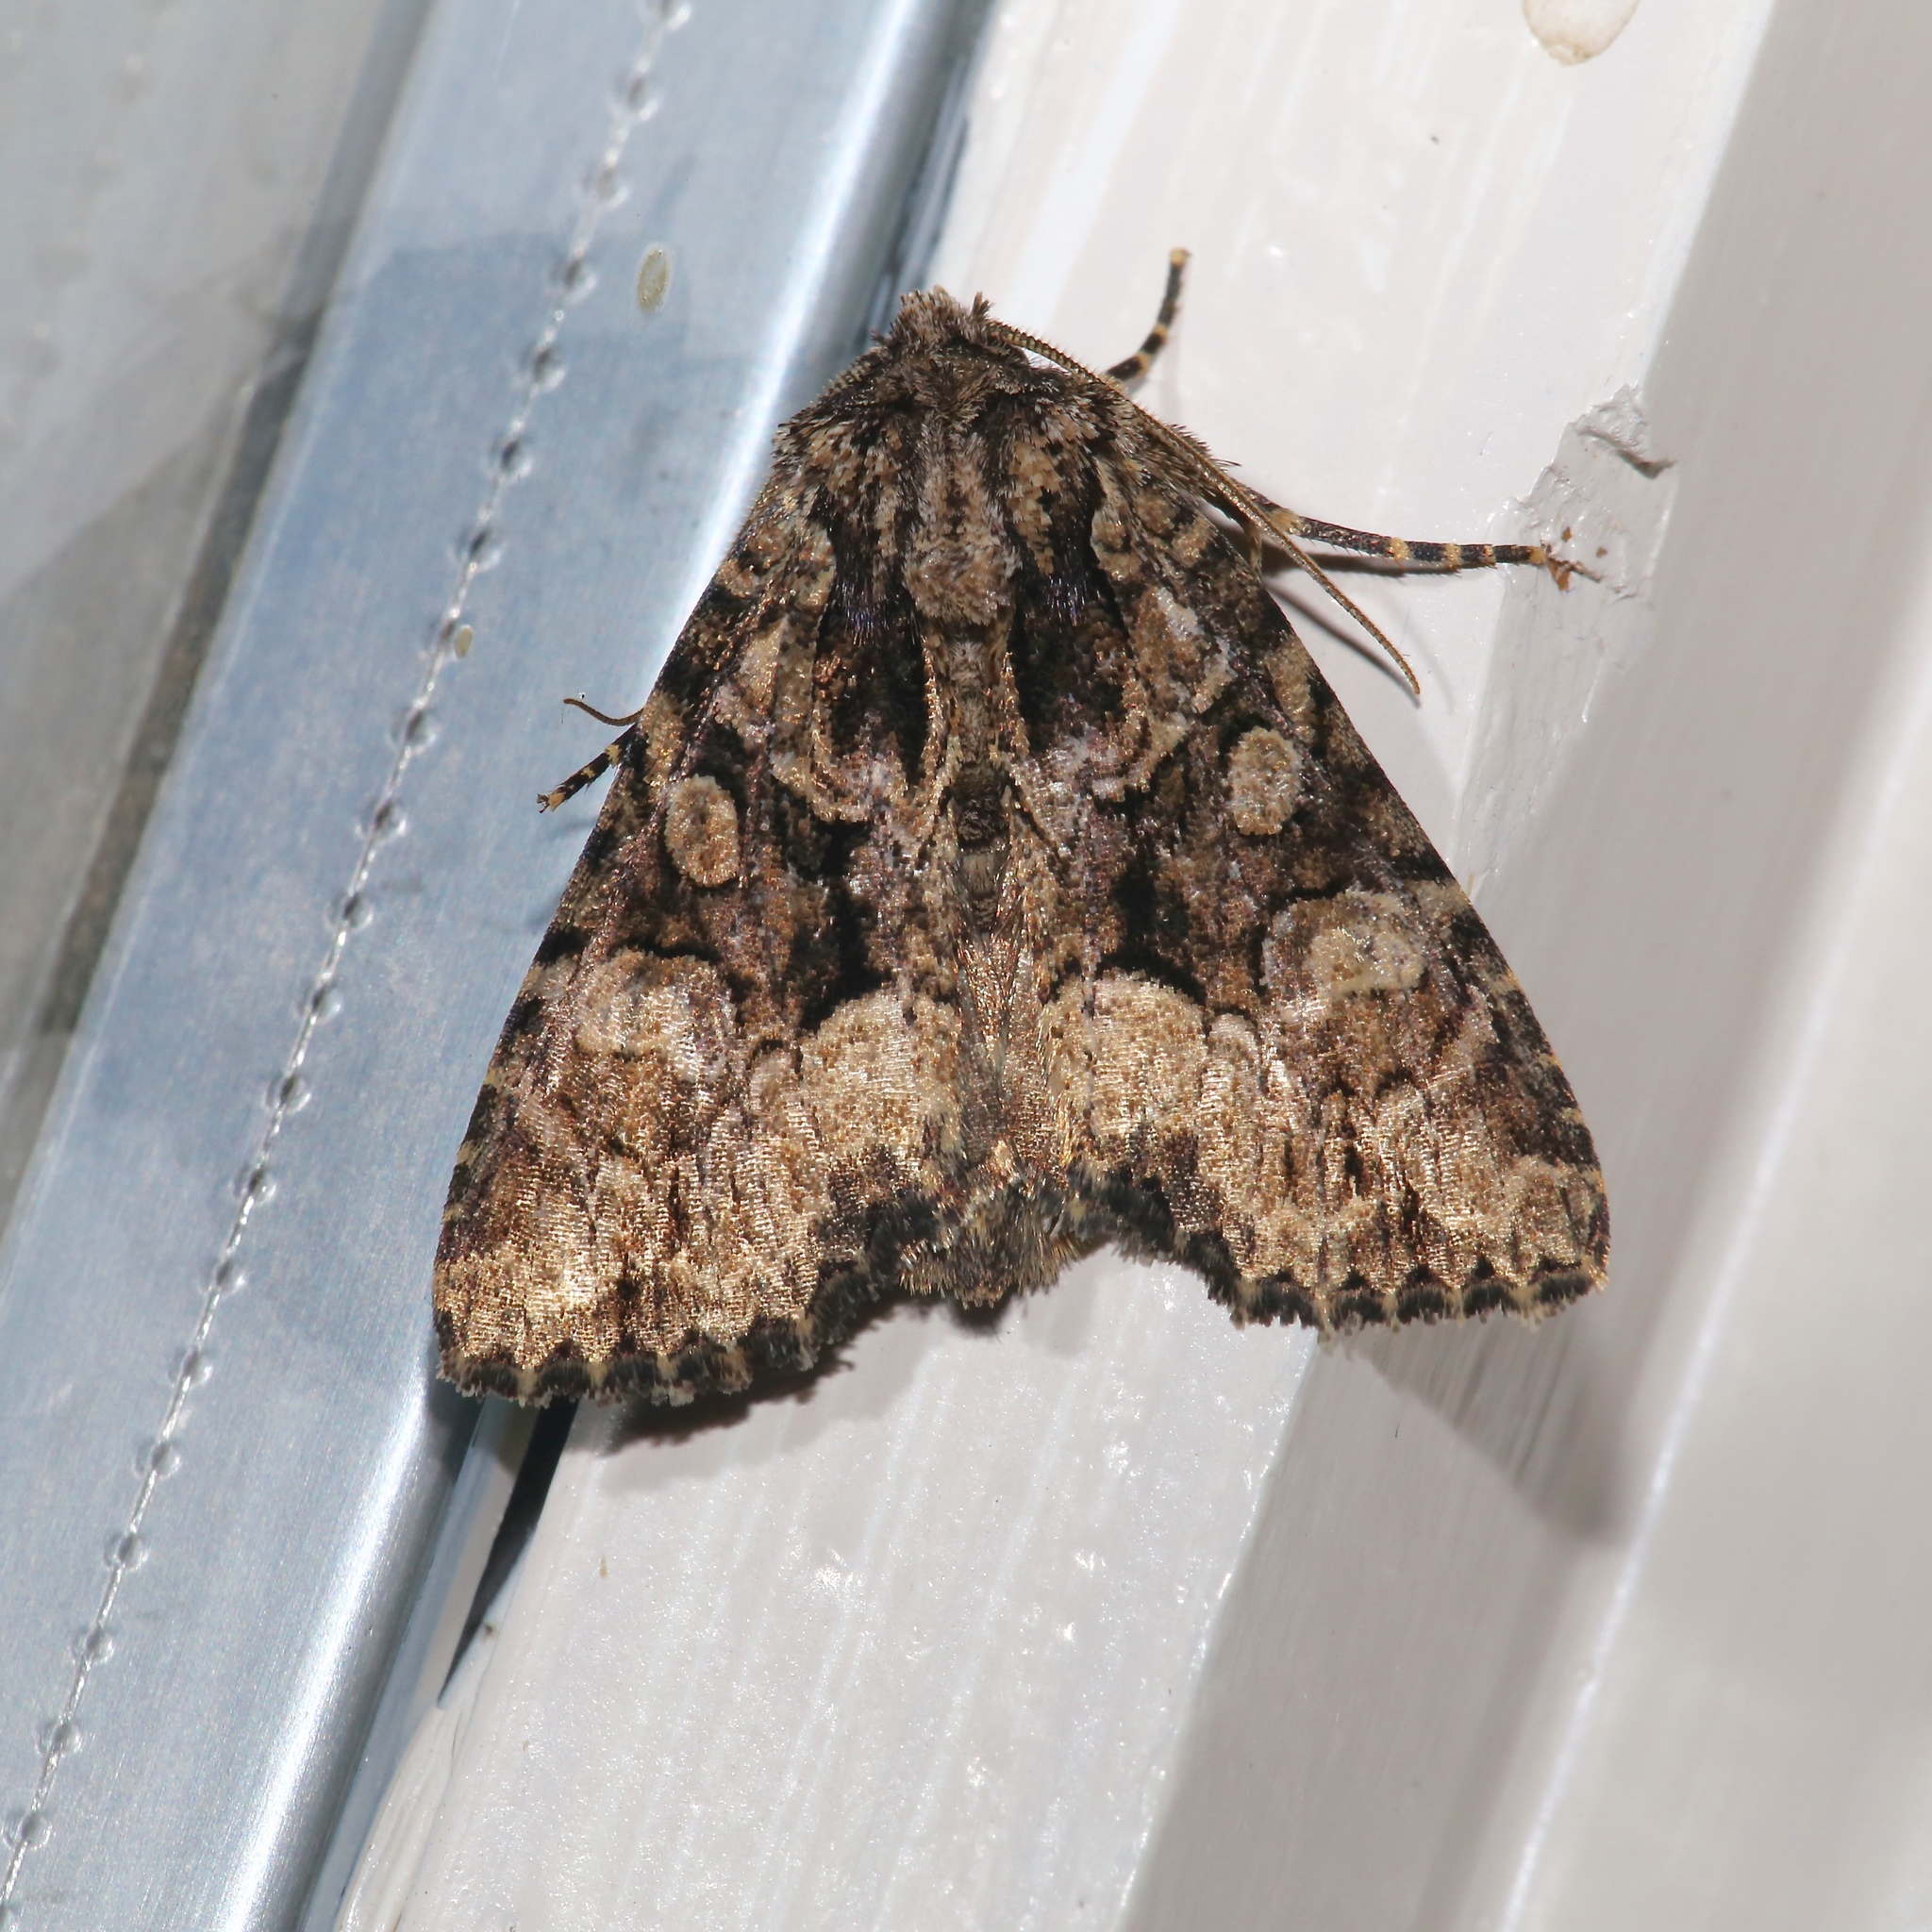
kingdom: Animalia
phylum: Arthropoda
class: Insecta
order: Lepidoptera
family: Noctuidae
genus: Platypolia
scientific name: Platypolia mactata
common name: Adorable brocade moth
